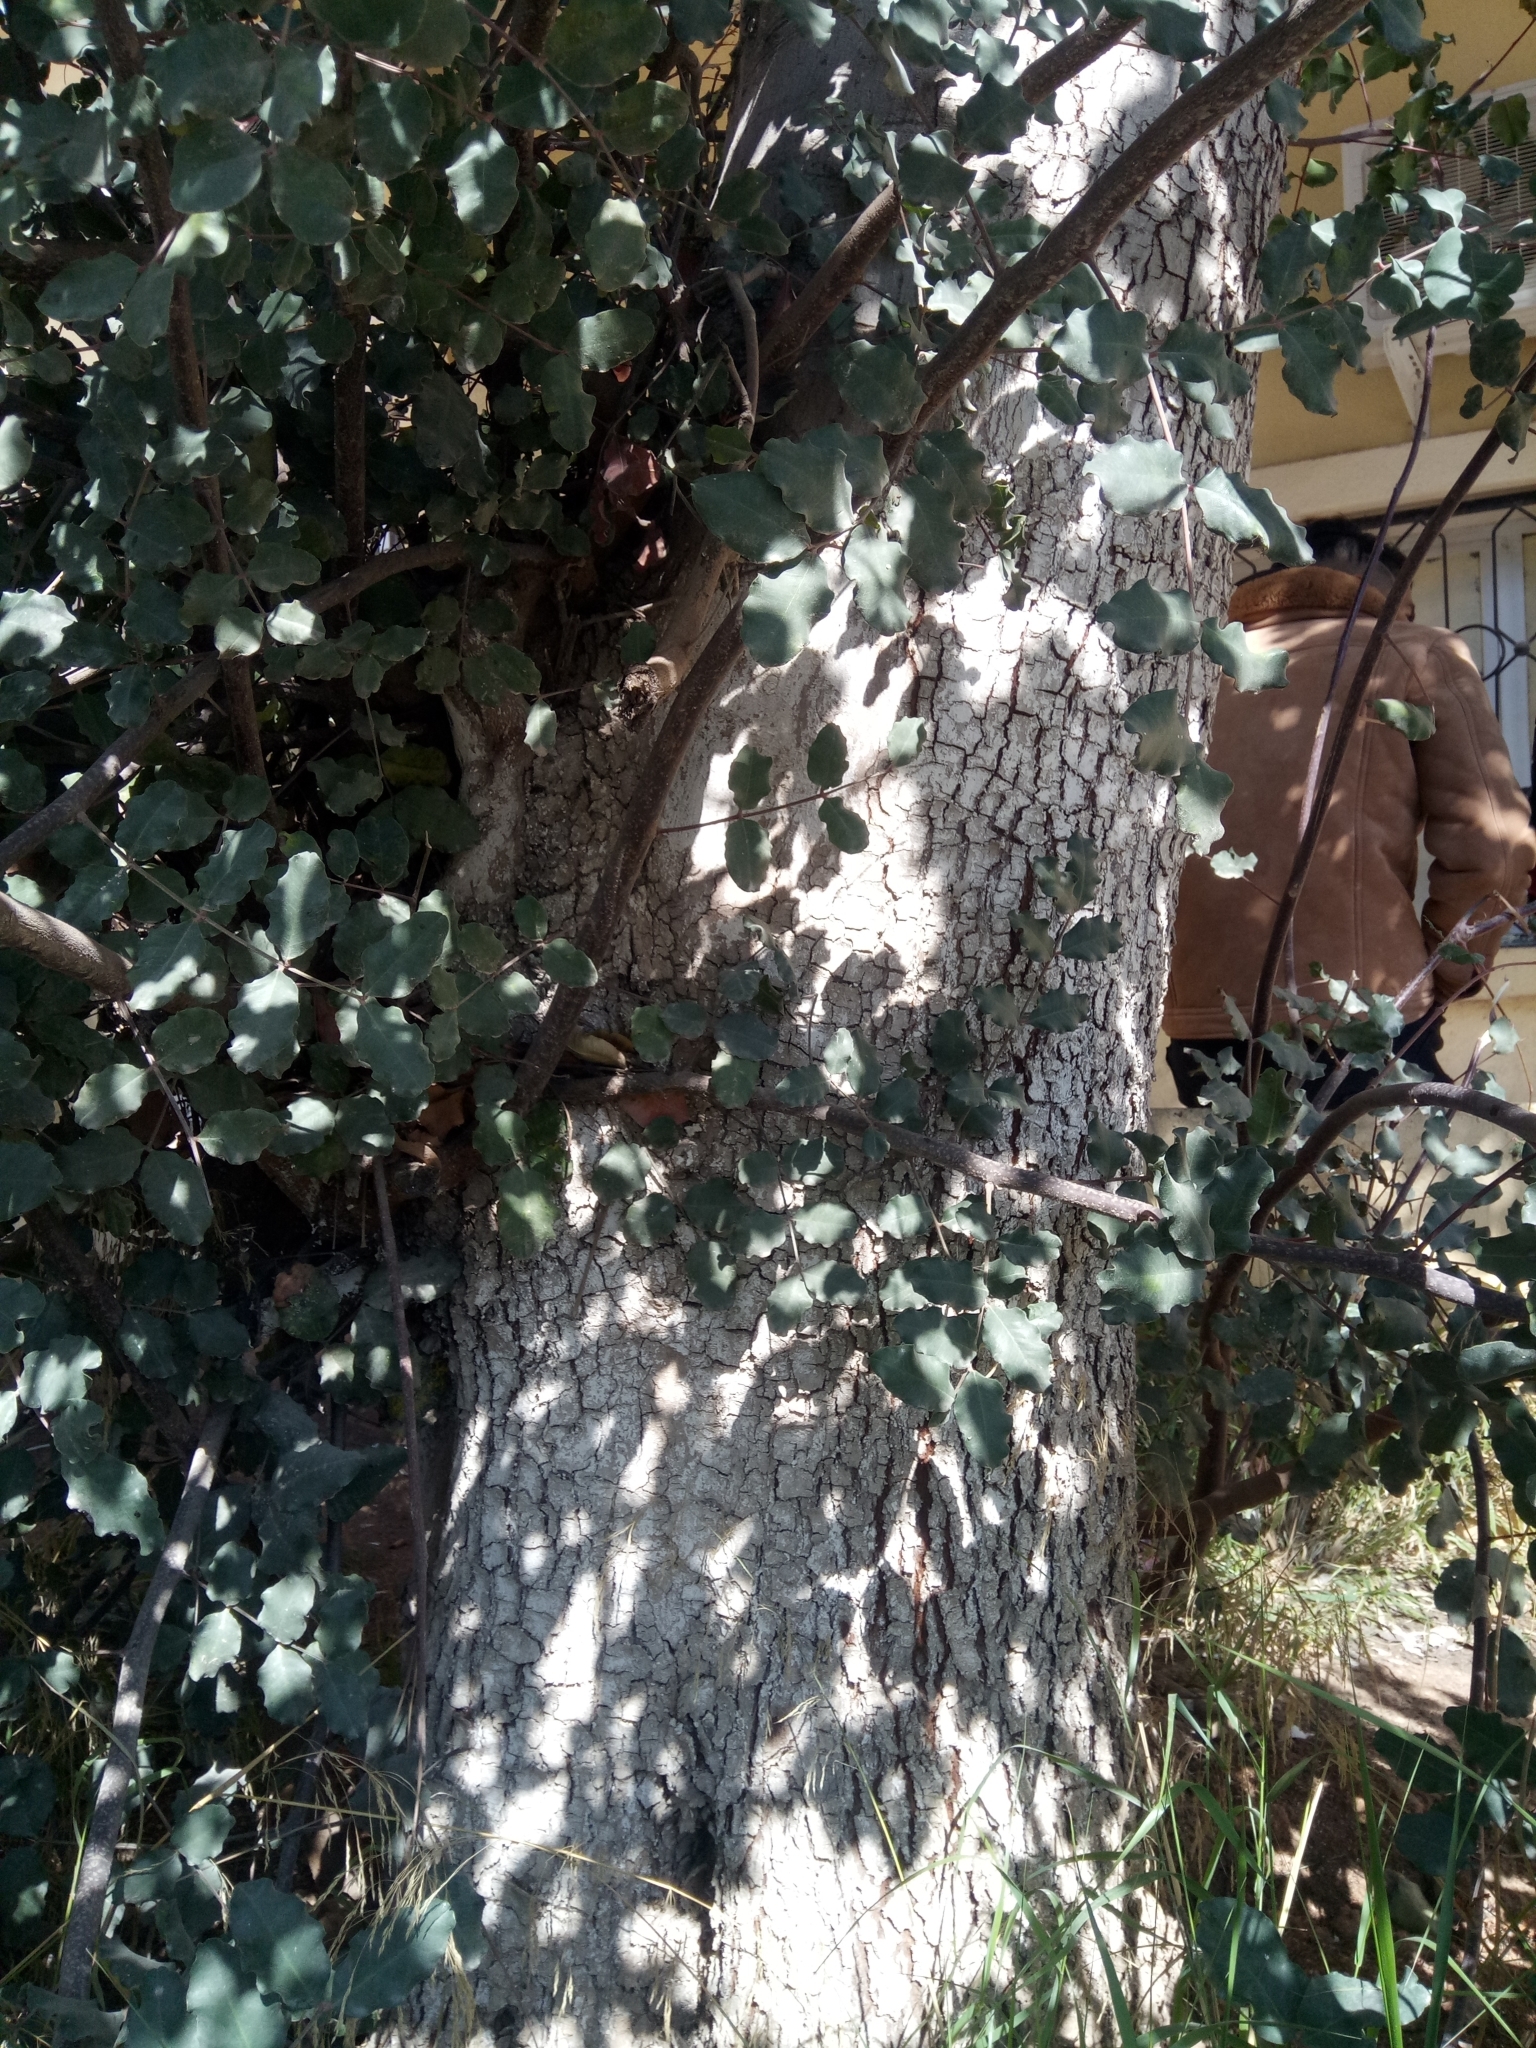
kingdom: Plantae
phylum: Tracheophyta
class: Magnoliopsida
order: Fabales
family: Fabaceae
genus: Ceratonia
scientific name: Ceratonia siliqua
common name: Carob
